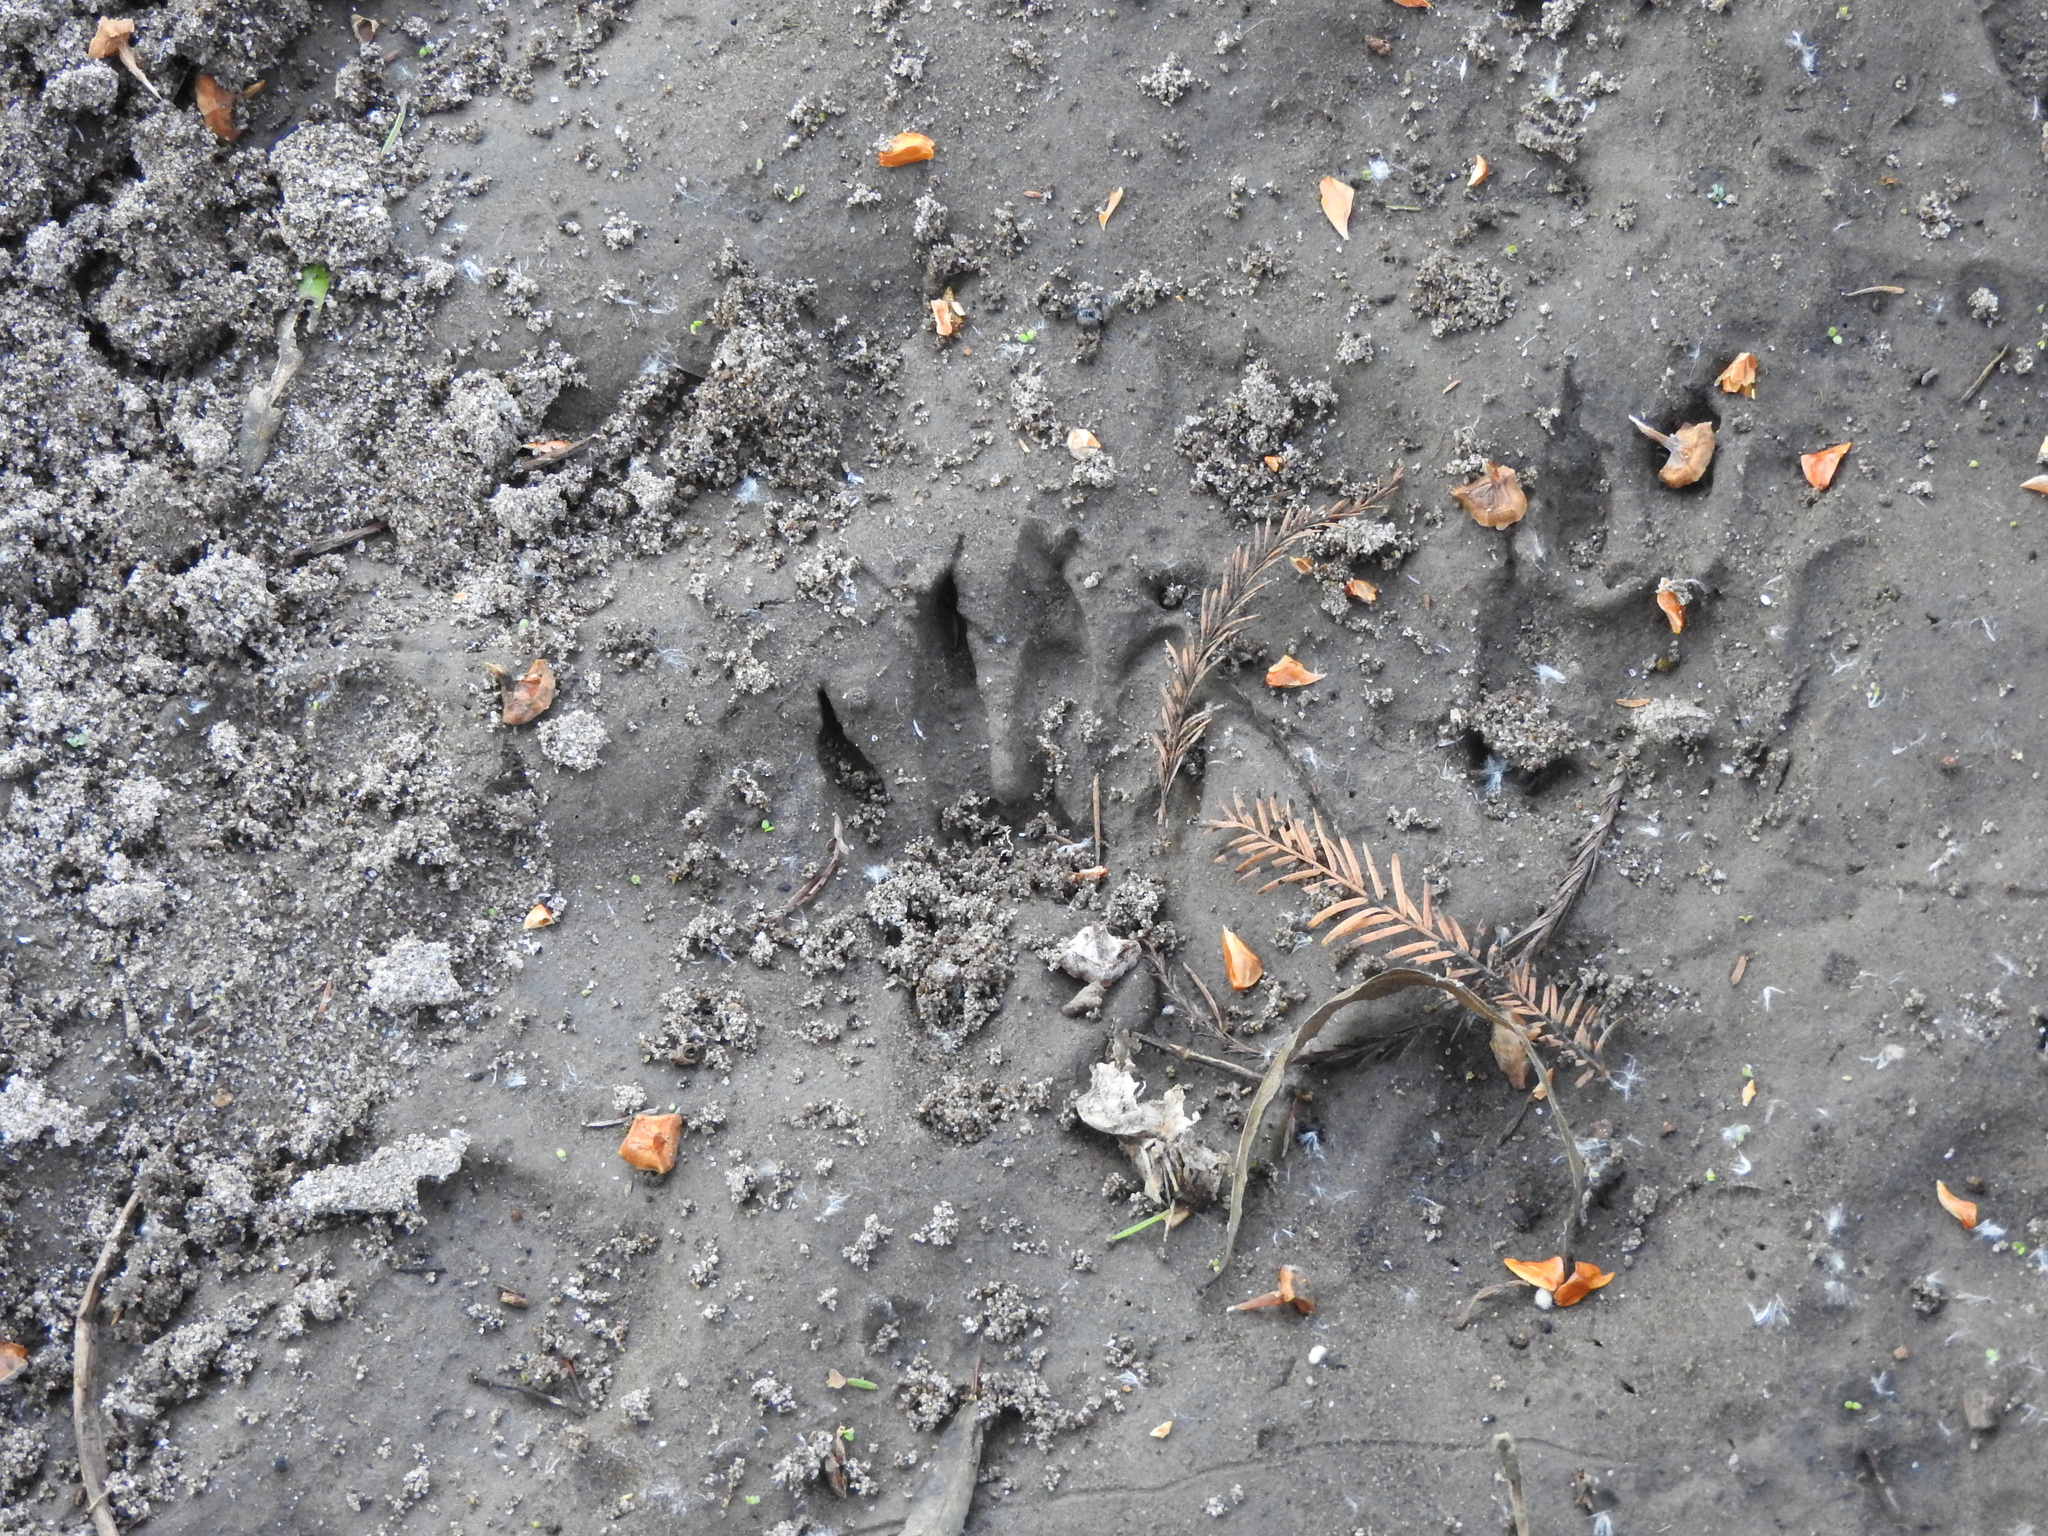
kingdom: Animalia
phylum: Chordata
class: Mammalia
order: Carnivora
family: Procyonidae
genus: Procyon
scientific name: Procyon lotor
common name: Raccoon
